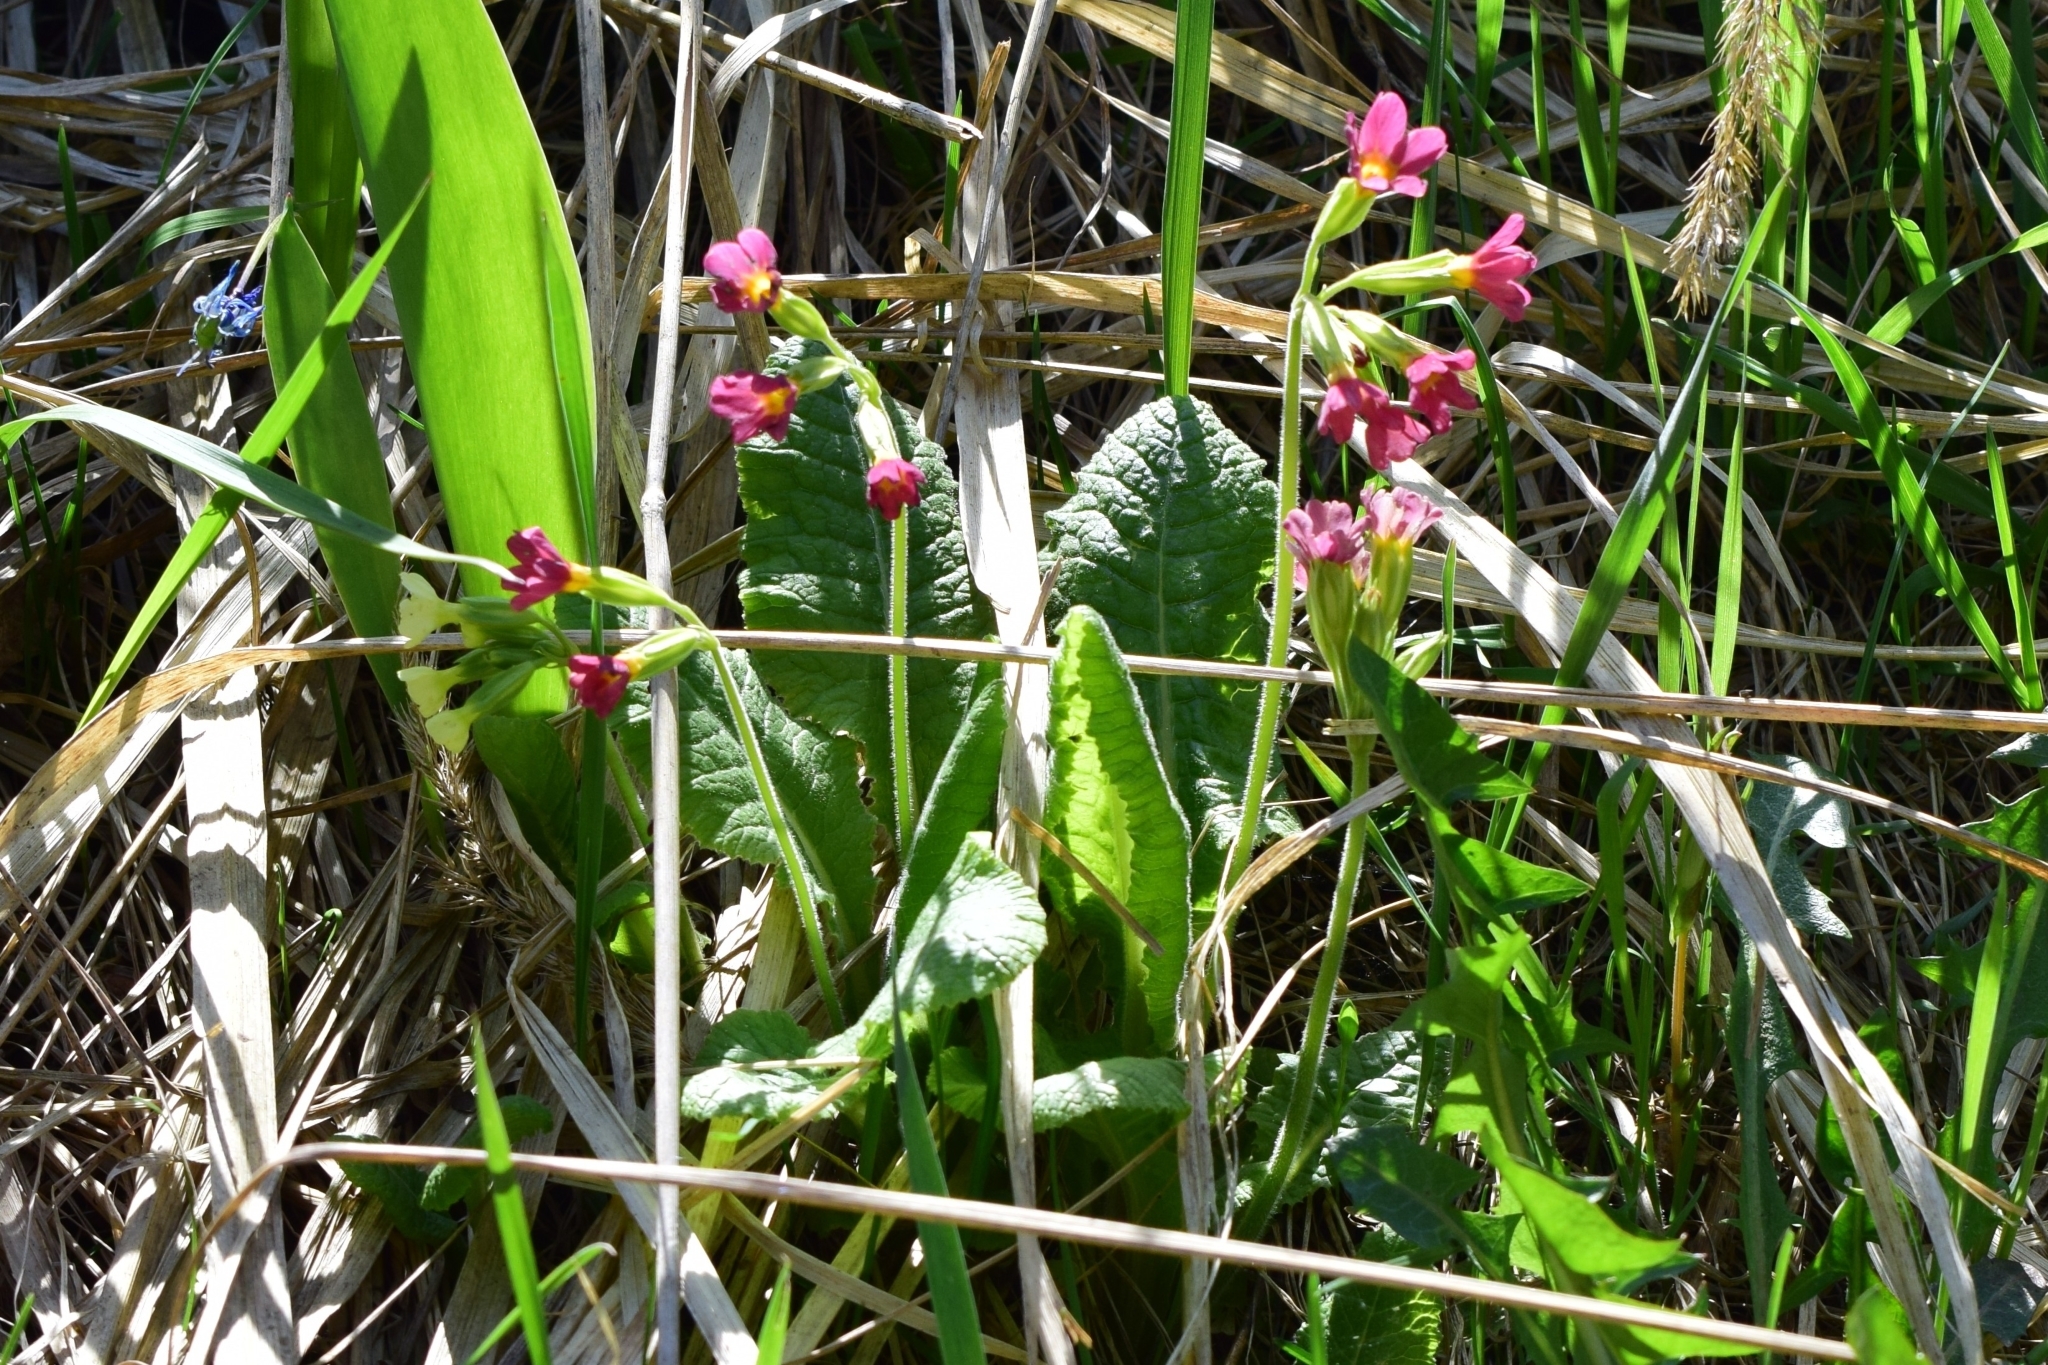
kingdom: Plantae
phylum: Tracheophyta
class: Magnoliopsida
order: Ericales
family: Primulaceae
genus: Primula
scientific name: Primula polyantha
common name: False oxlip
